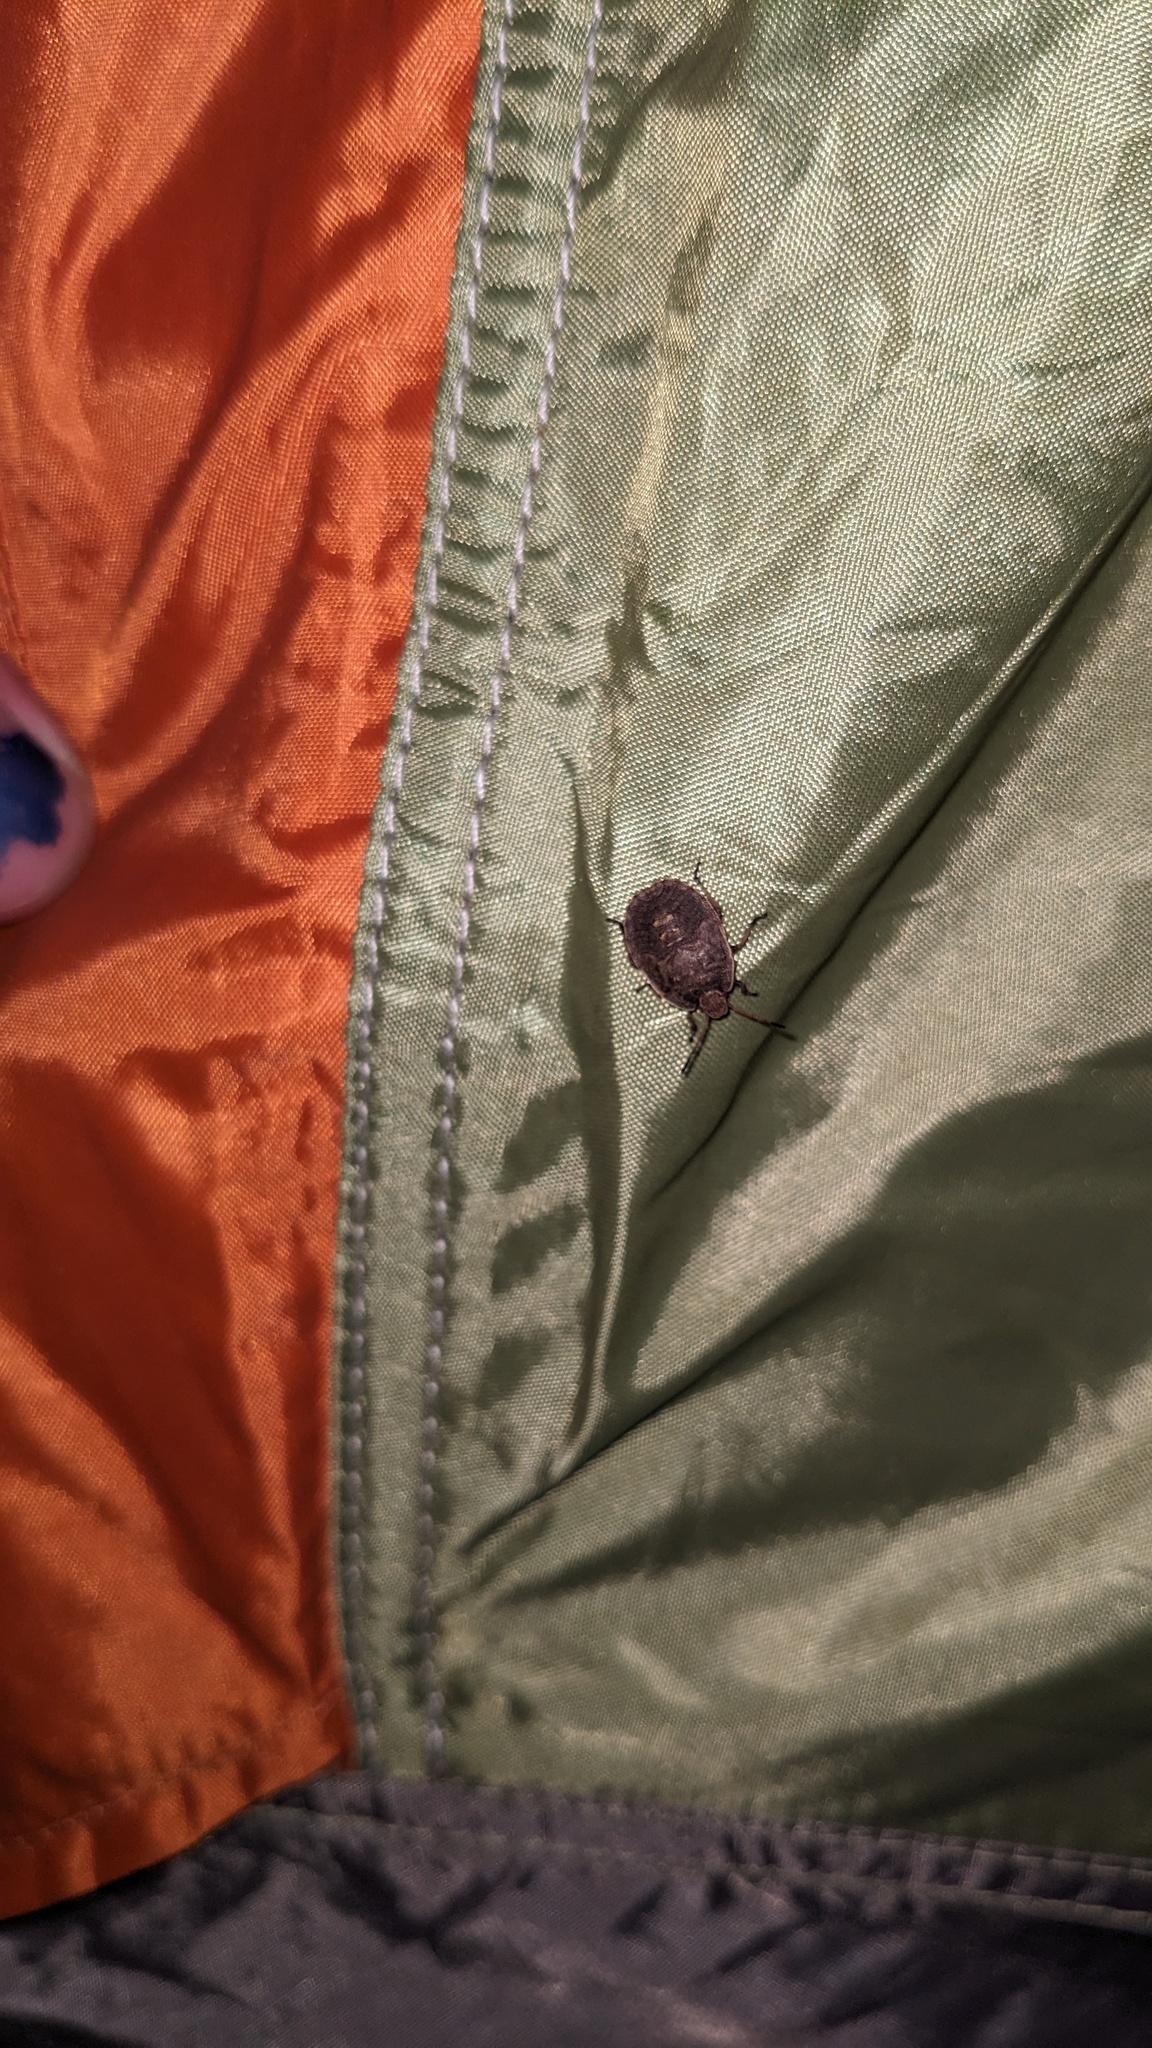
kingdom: Animalia
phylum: Arthropoda
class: Insecta
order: Hemiptera
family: Pentatomidae
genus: Menecles
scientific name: Menecles insertus
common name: Elf shoe stink bug
